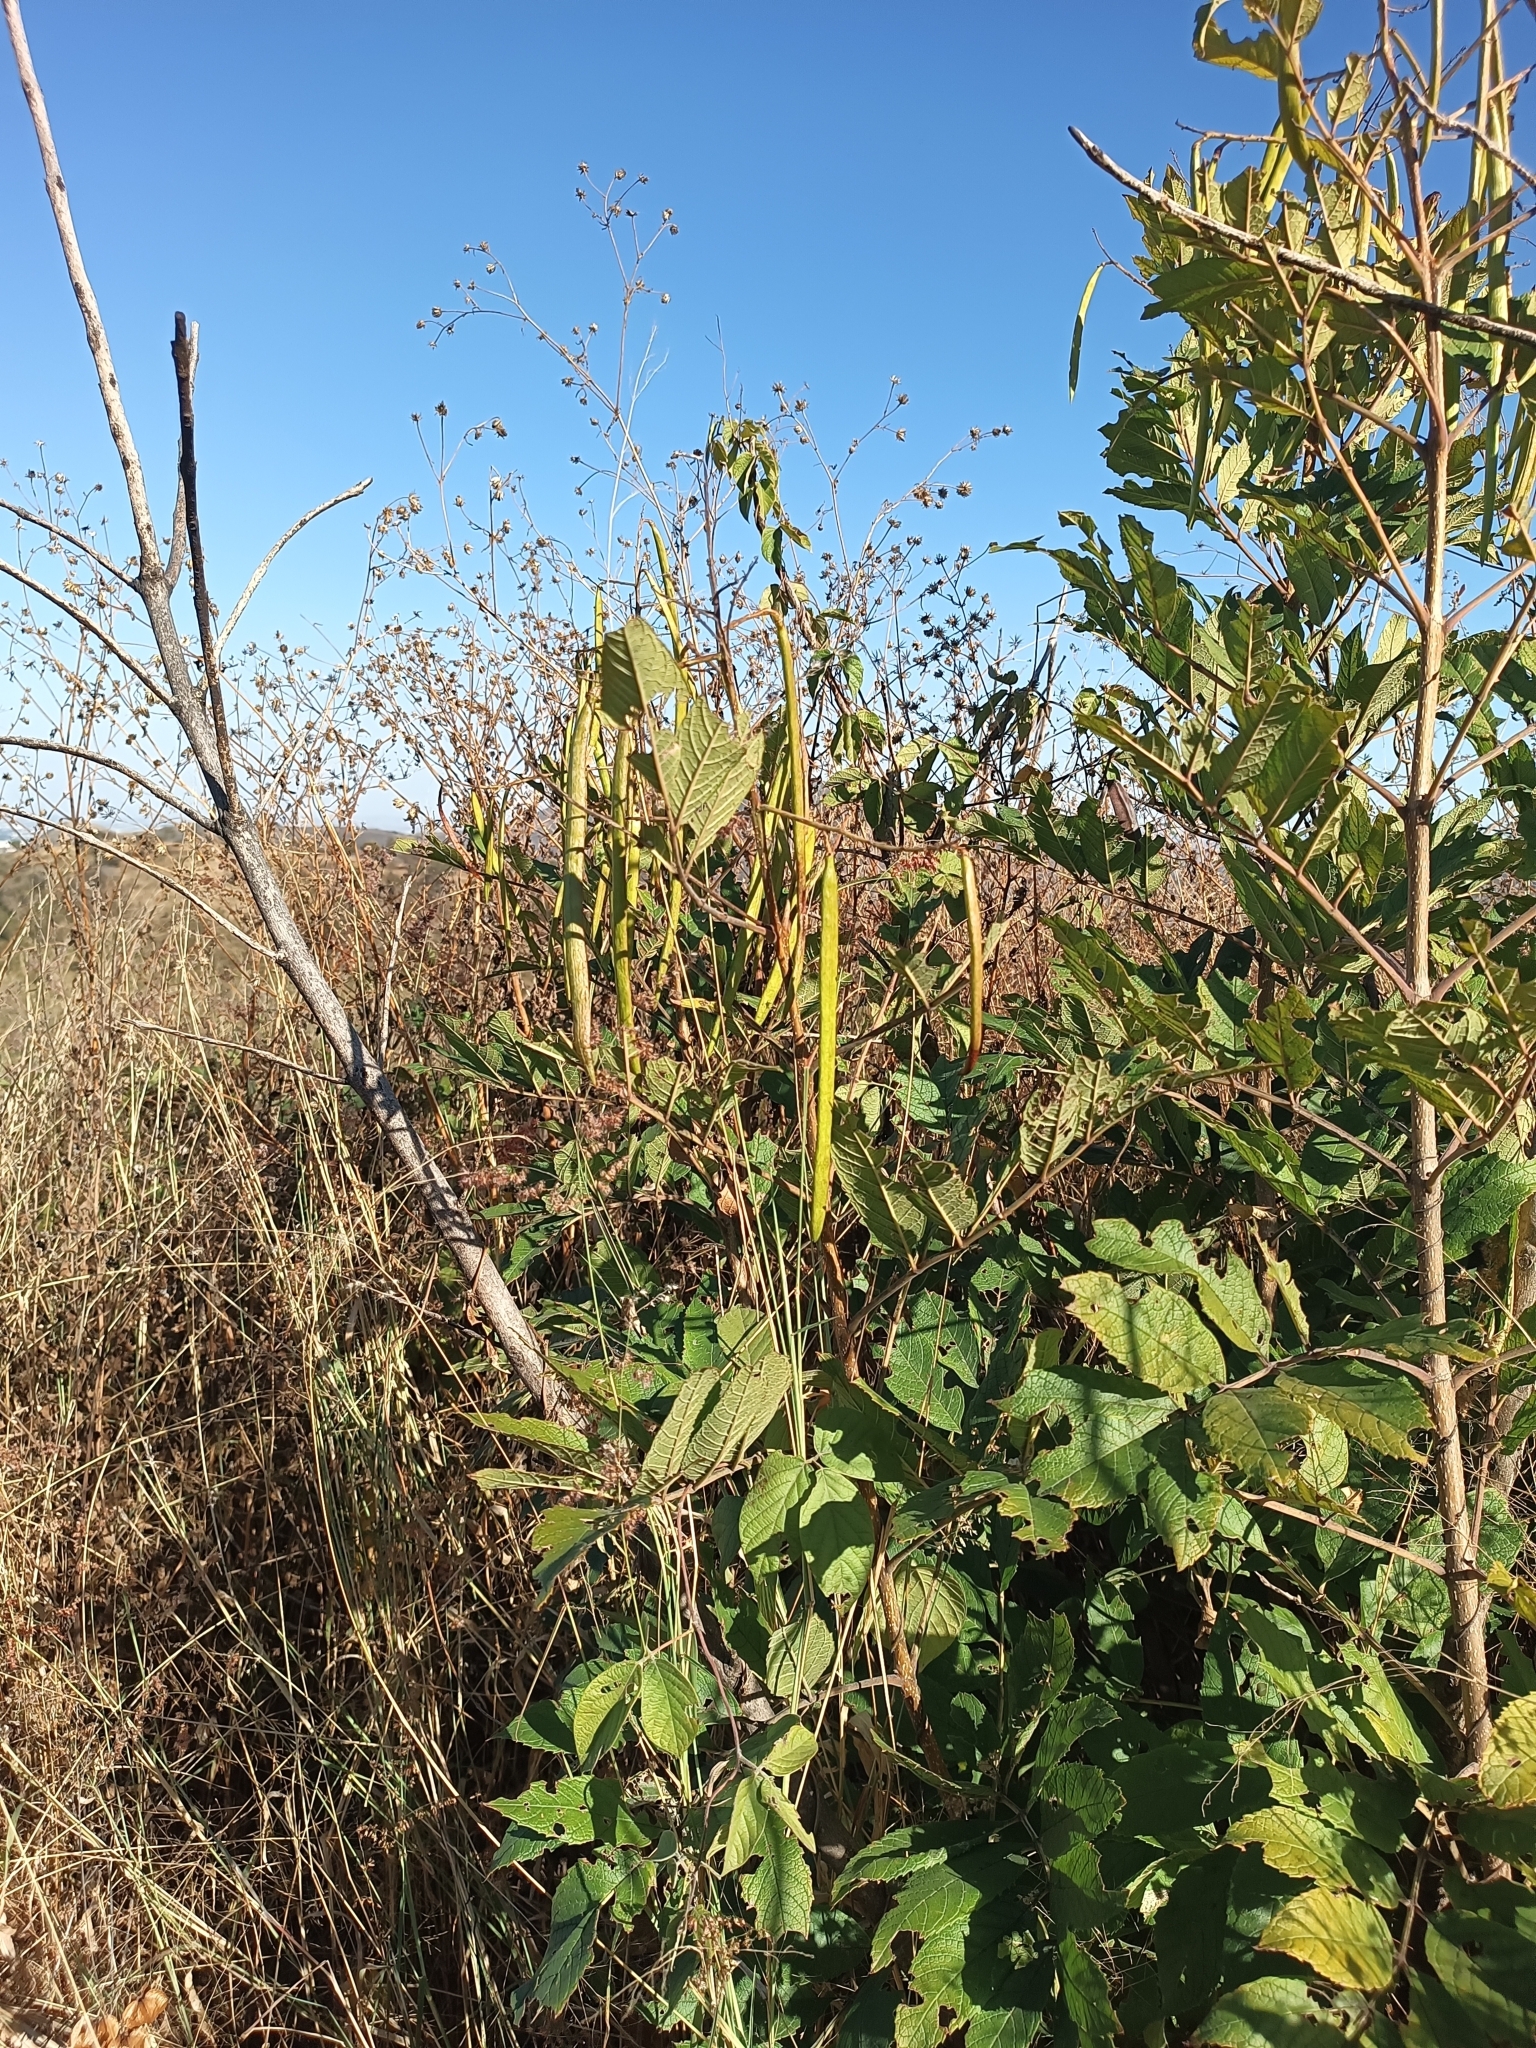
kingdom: Plantae
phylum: Tracheophyta
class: Magnoliopsida
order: Lamiales
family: Bignoniaceae
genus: Tecoma
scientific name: Tecoma stans
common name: Yellow trumpetbush
